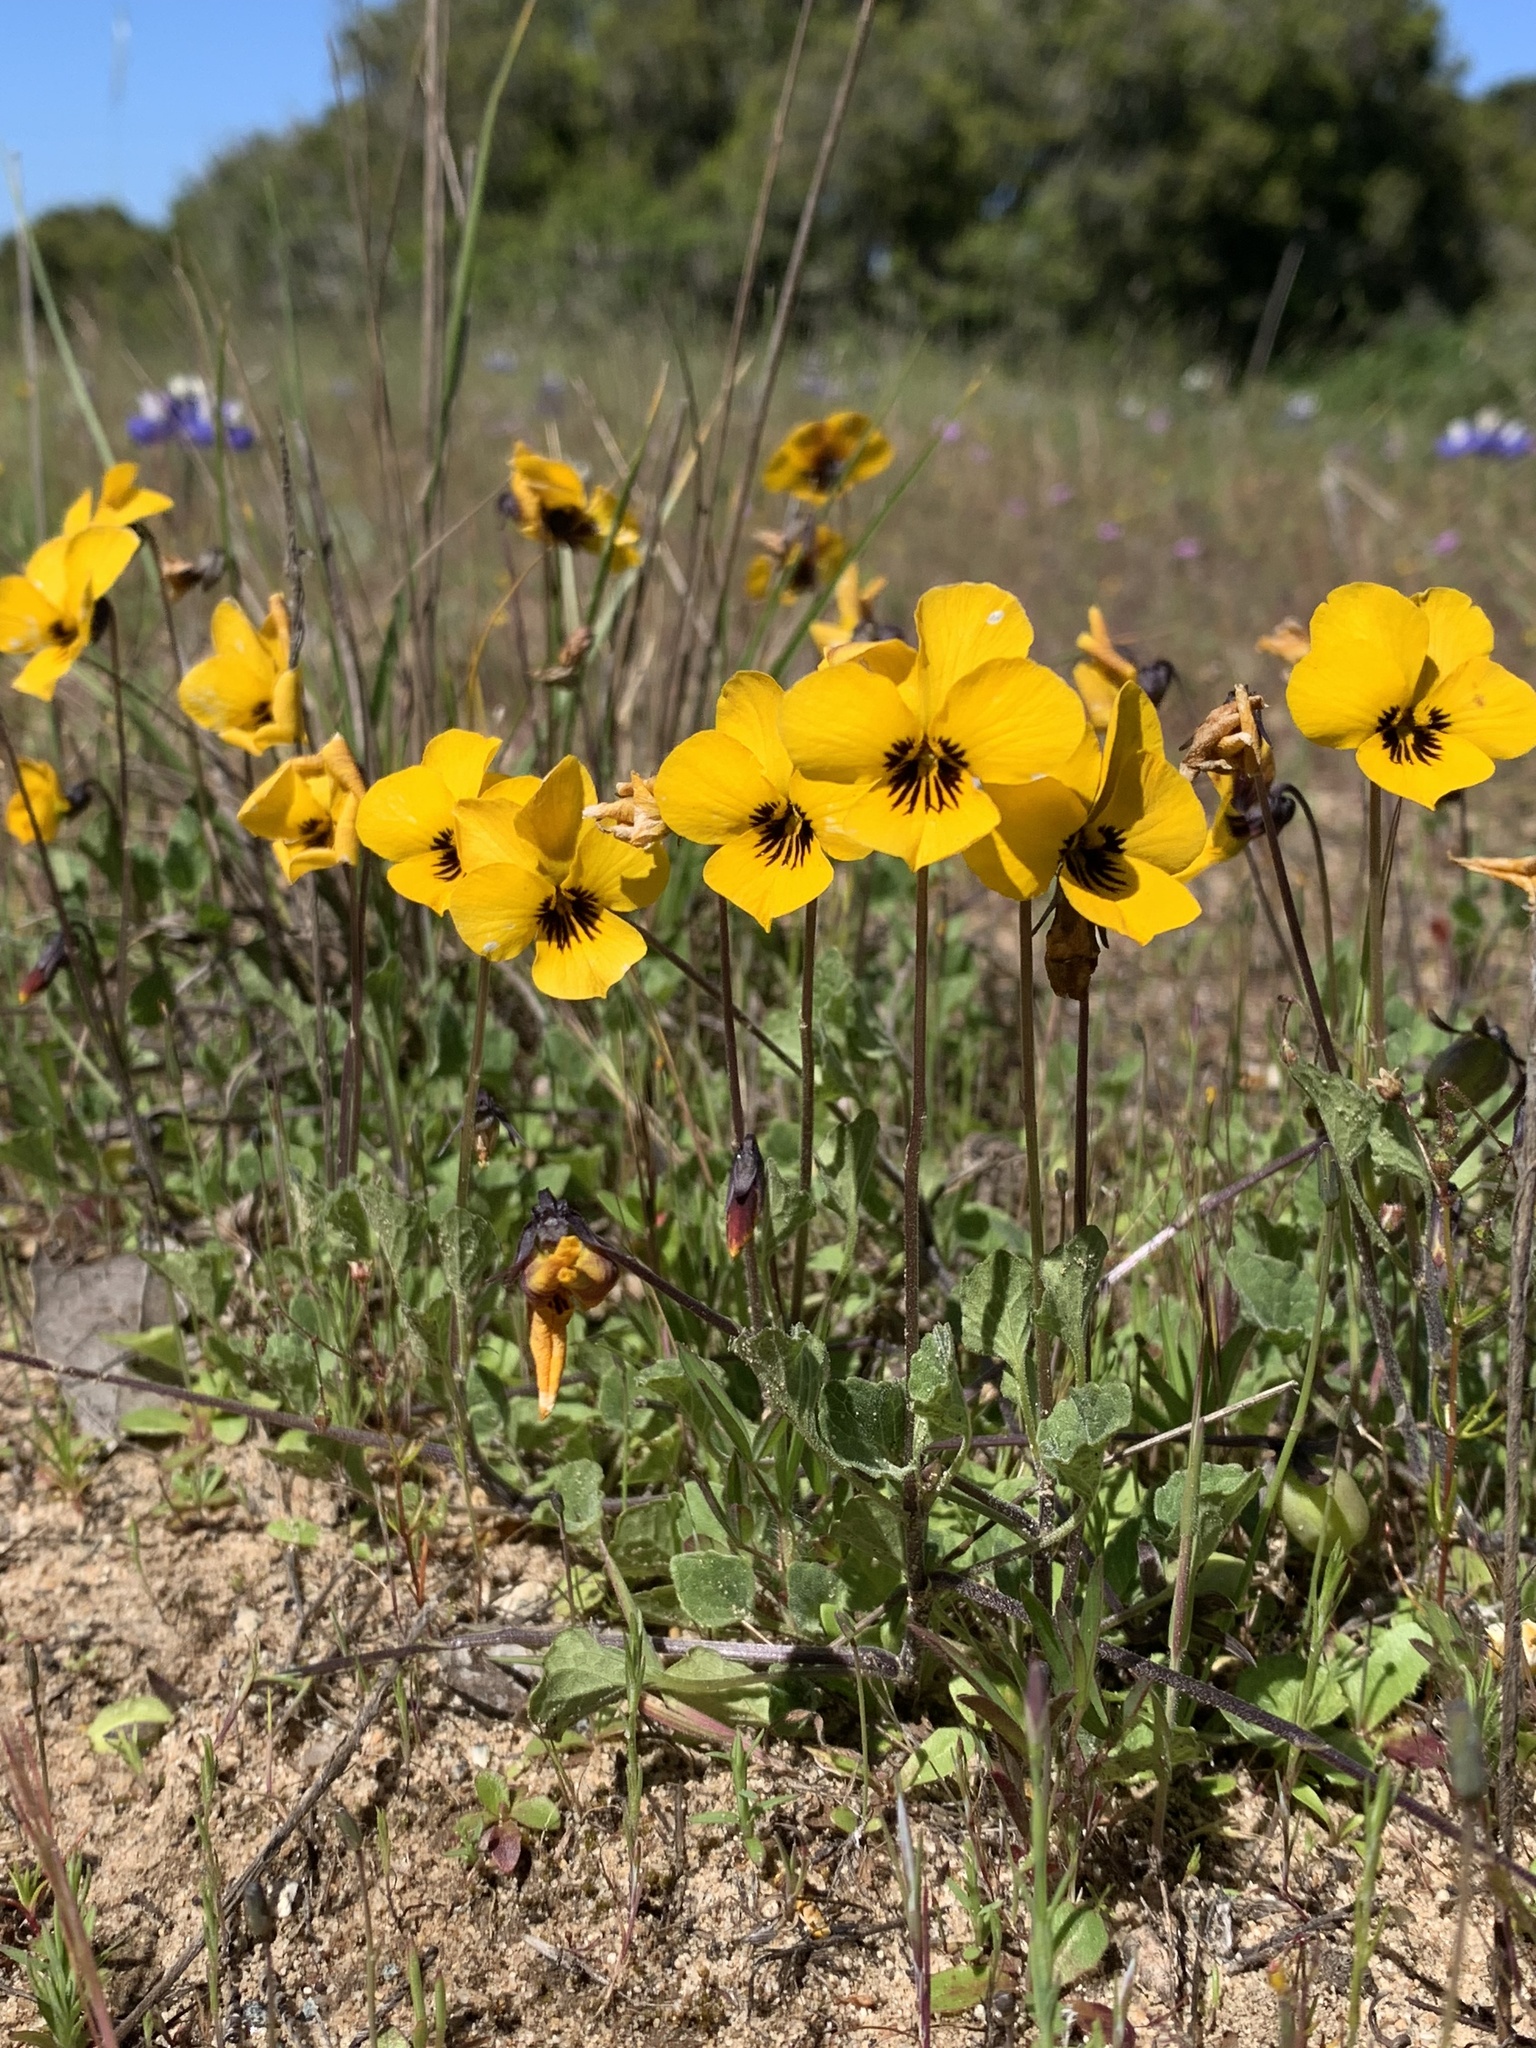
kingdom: Plantae
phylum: Tracheophyta
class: Magnoliopsida
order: Malpighiales
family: Violaceae
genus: Viola
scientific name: Viola pedunculata
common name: California golden violet
